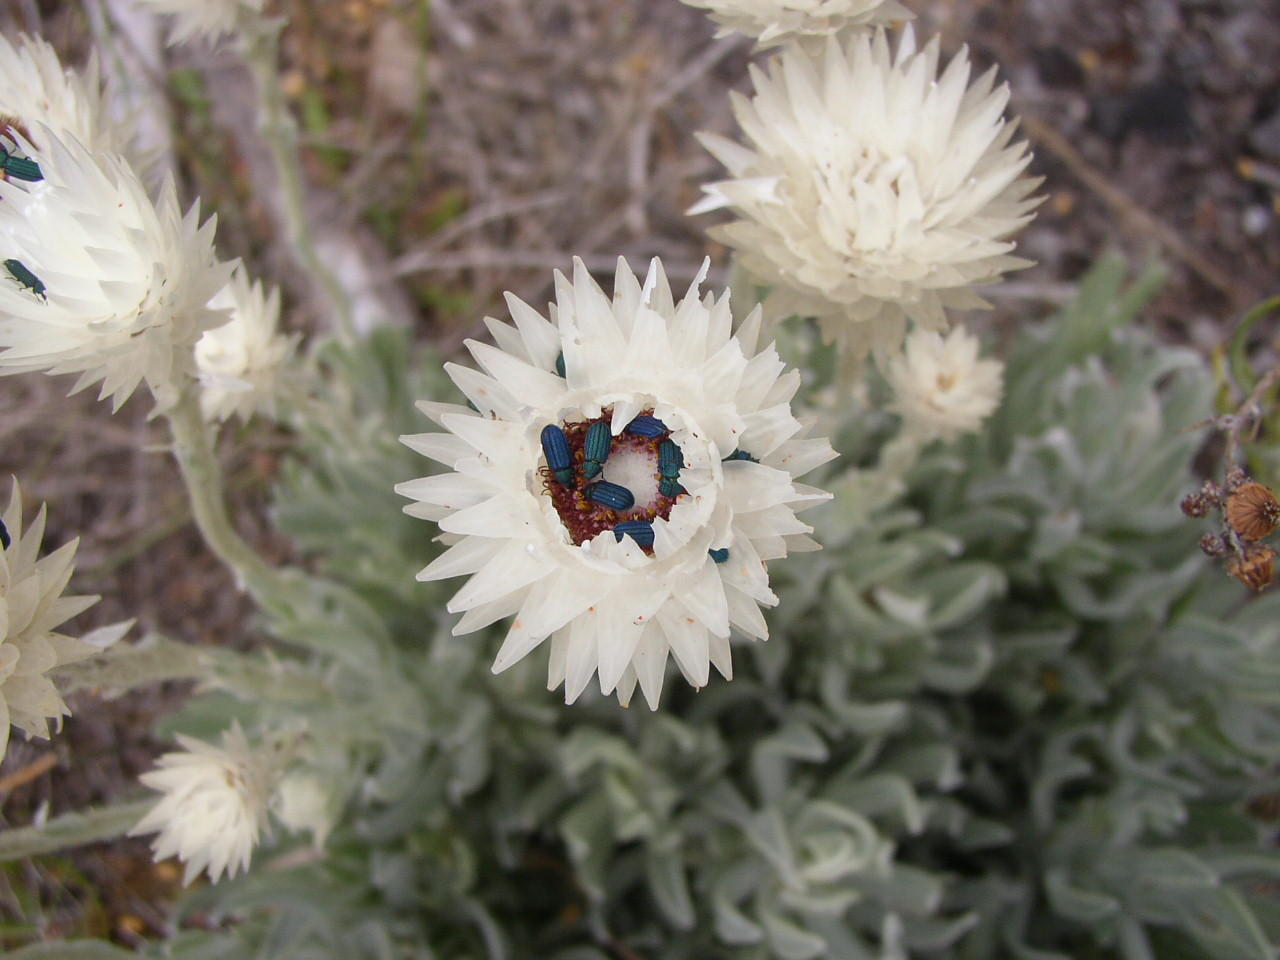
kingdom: Plantae
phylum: Tracheophyta
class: Magnoliopsida
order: Asterales
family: Asteraceae
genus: Syncarpha
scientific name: Syncarpha vestita
